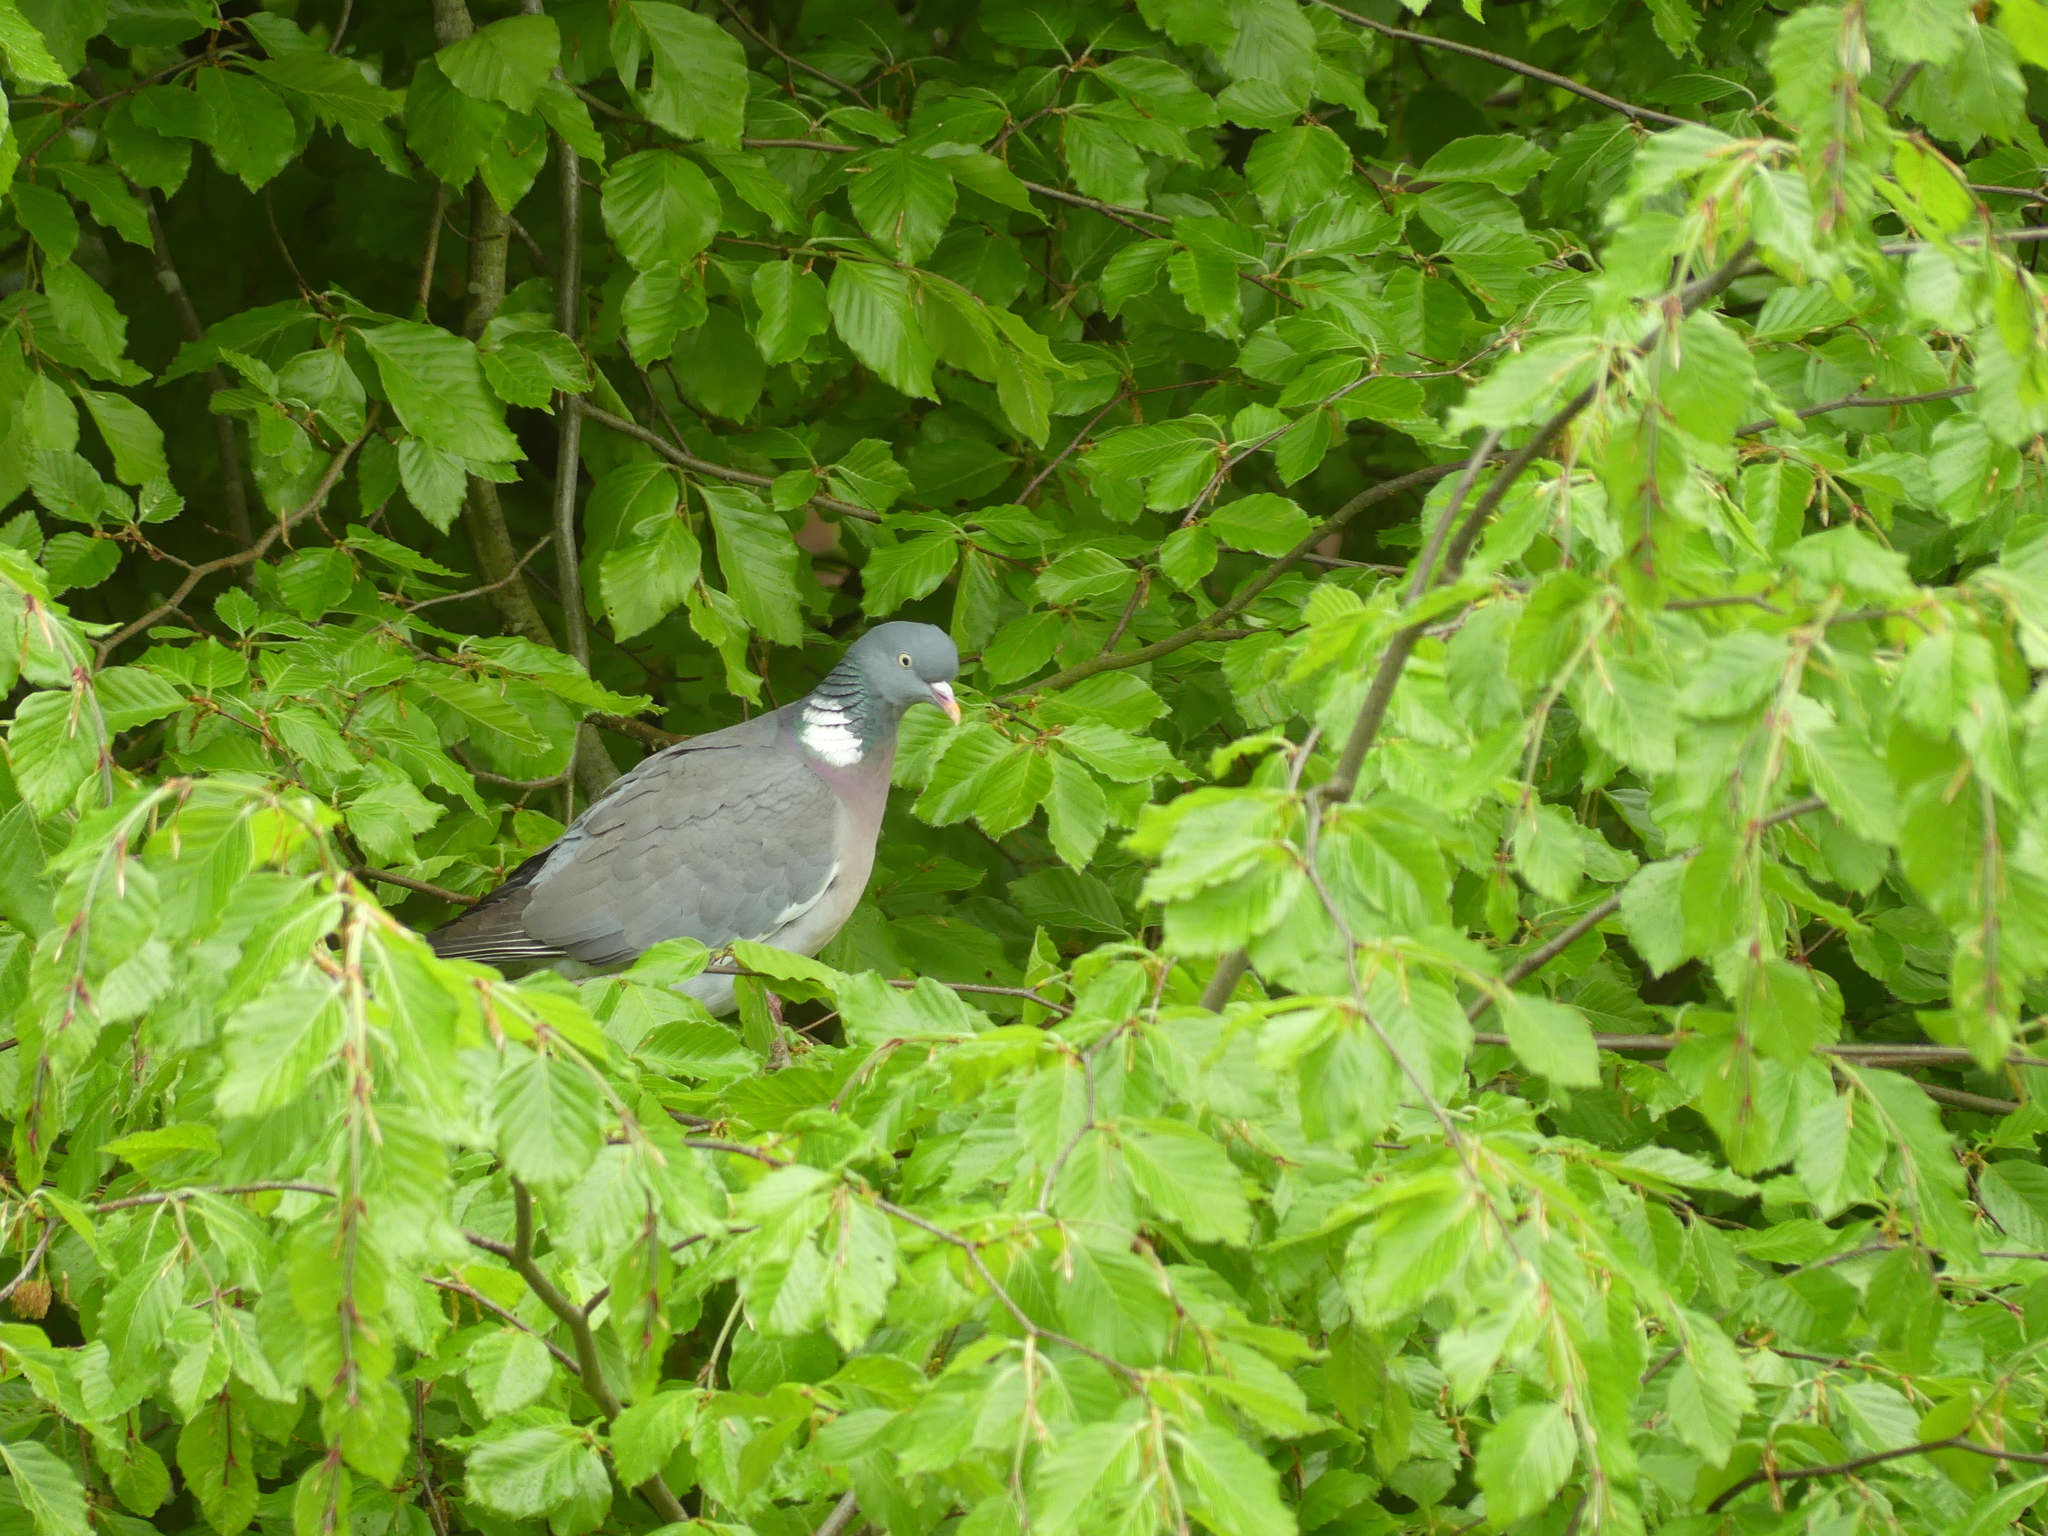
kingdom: Animalia
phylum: Chordata
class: Aves
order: Columbiformes
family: Columbidae
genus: Columba
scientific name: Columba palumbus
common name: Common wood pigeon
